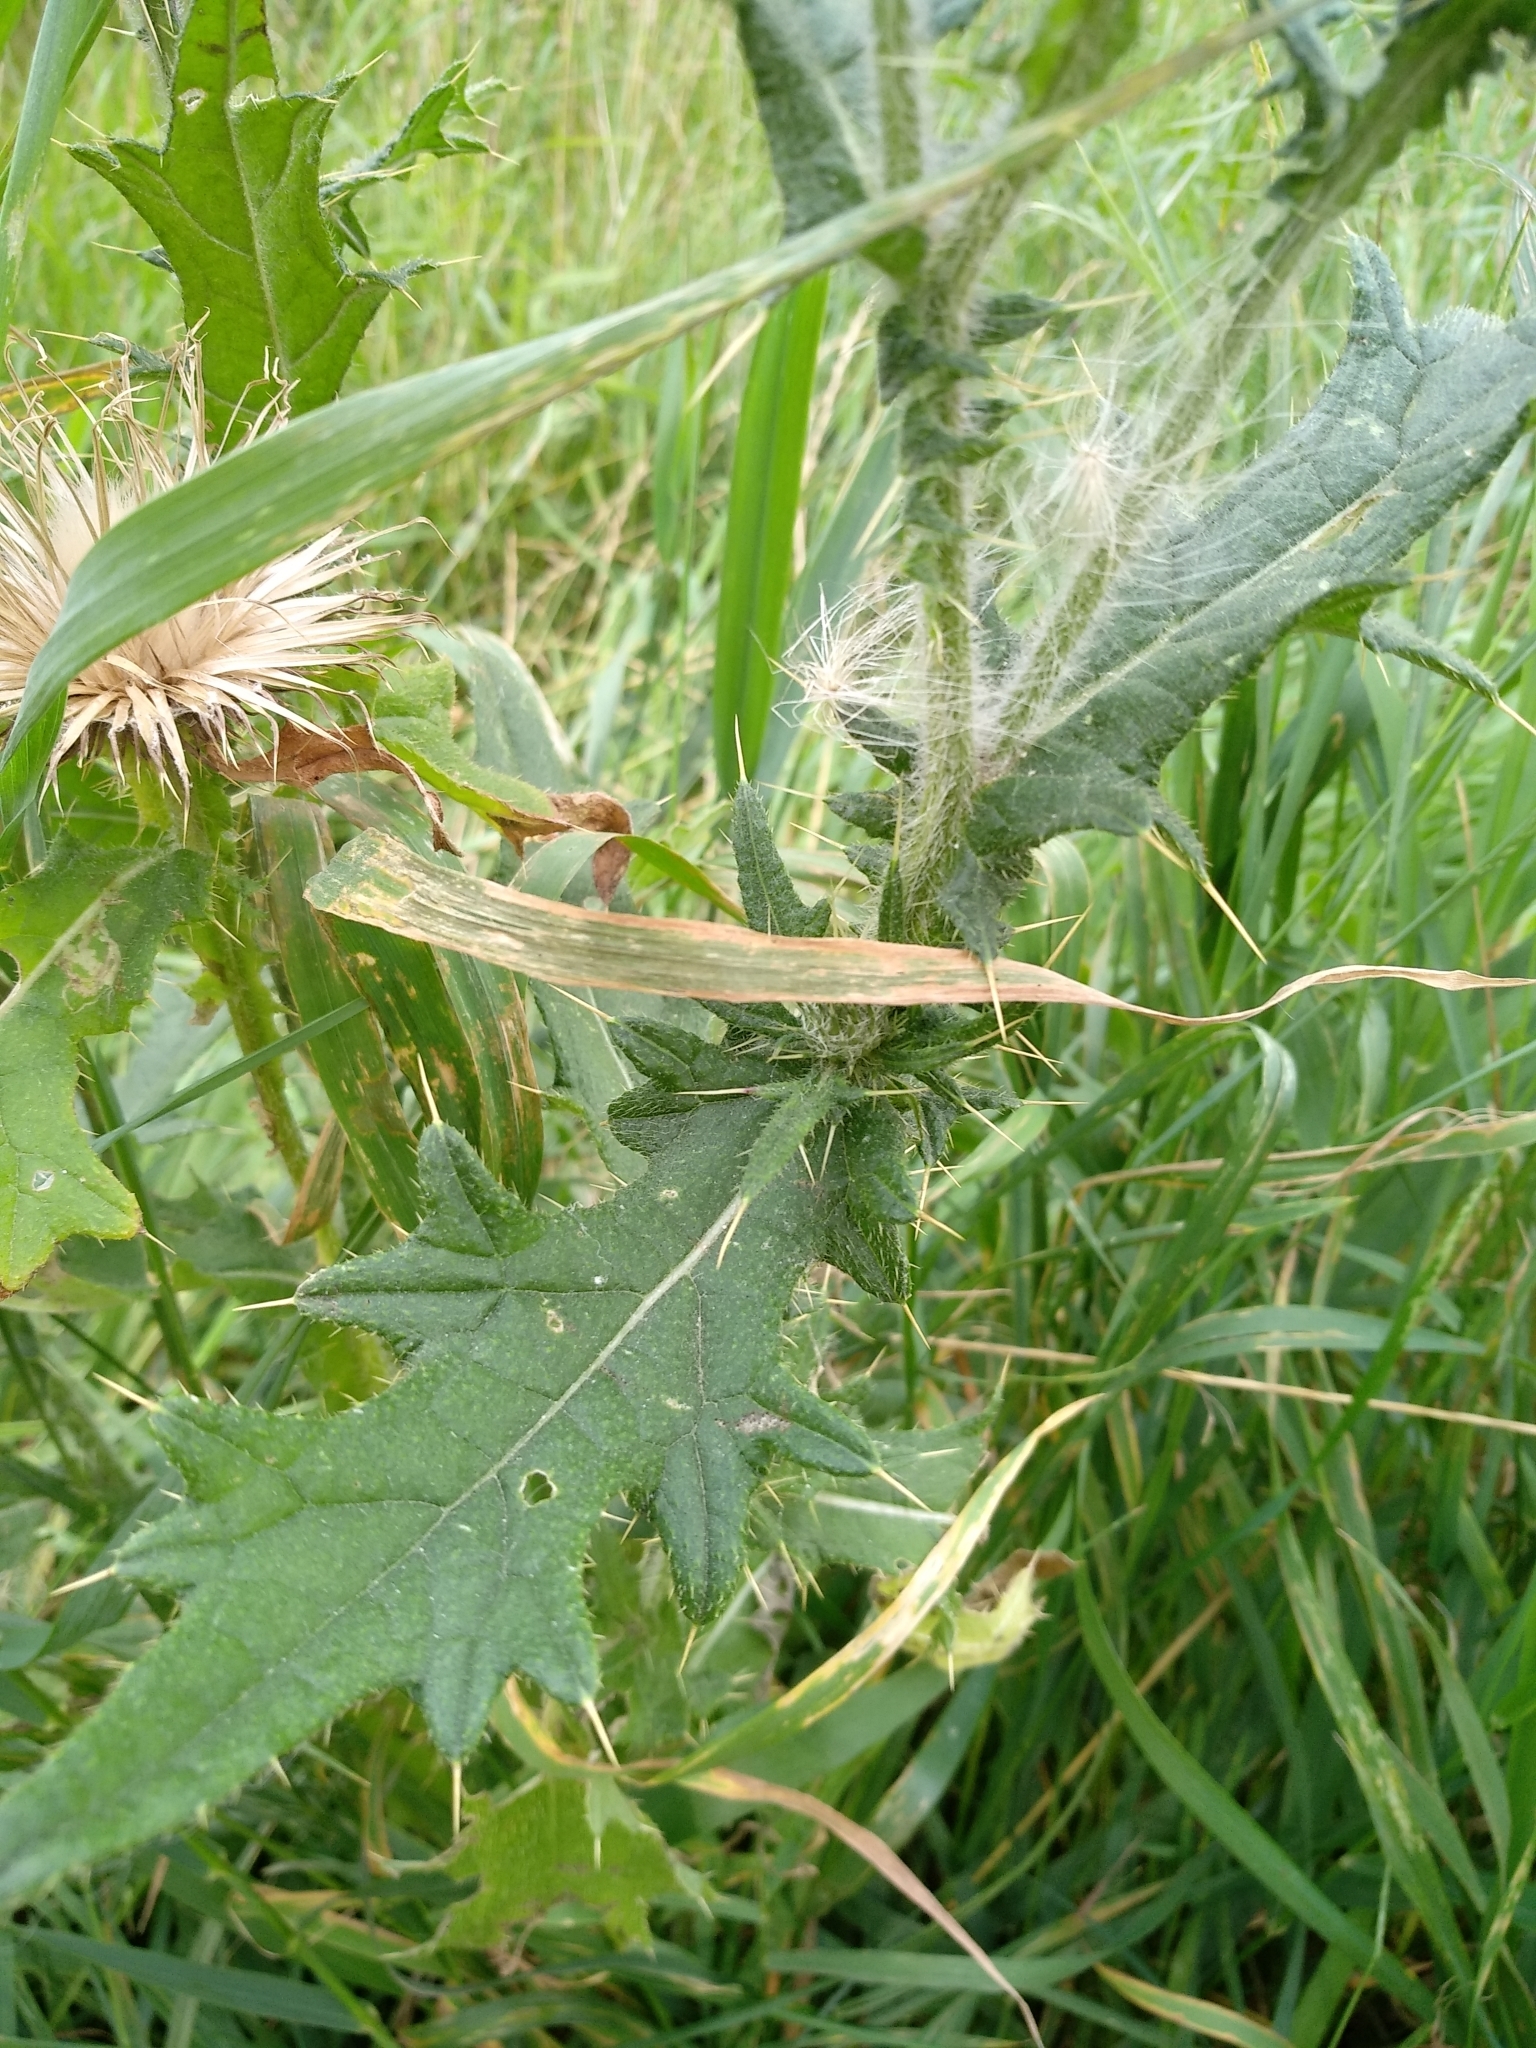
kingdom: Plantae
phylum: Tracheophyta
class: Magnoliopsida
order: Asterales
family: Asteraceae
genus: Cirsium
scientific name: Cirsium vulgare
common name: Bull thistle
